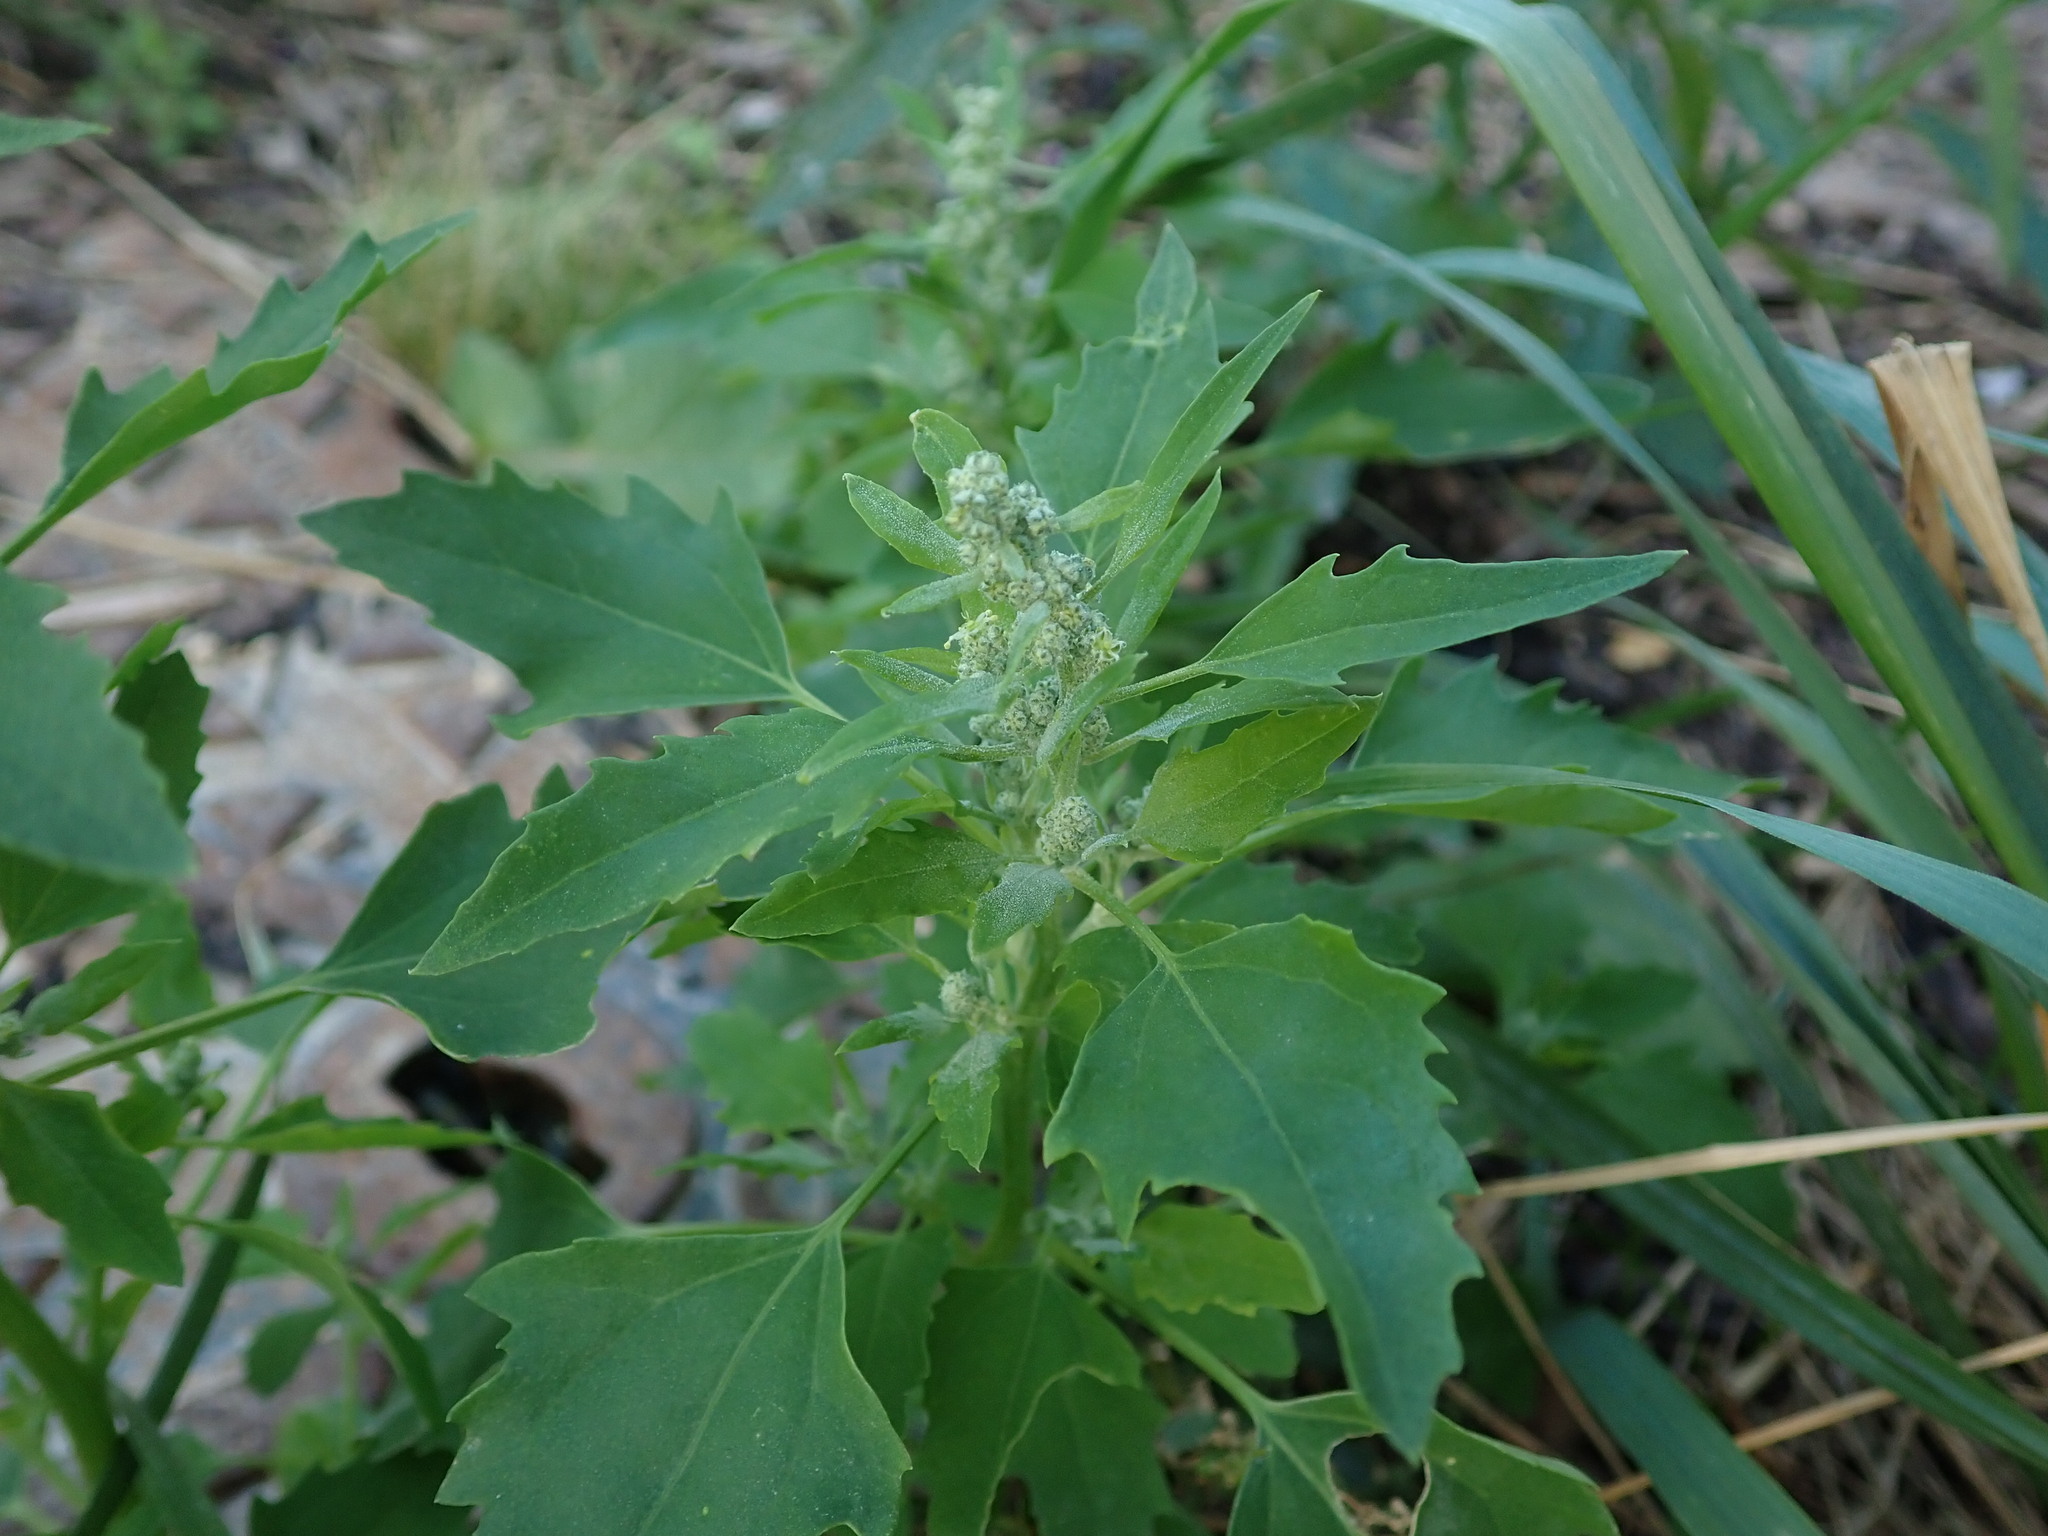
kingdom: Plantae
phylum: Tracheophyta
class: Magnoliopsida
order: Caryophyllales
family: Amaranthaceae
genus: Chenopodium
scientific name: Chenopodium album
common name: Fat-hen
